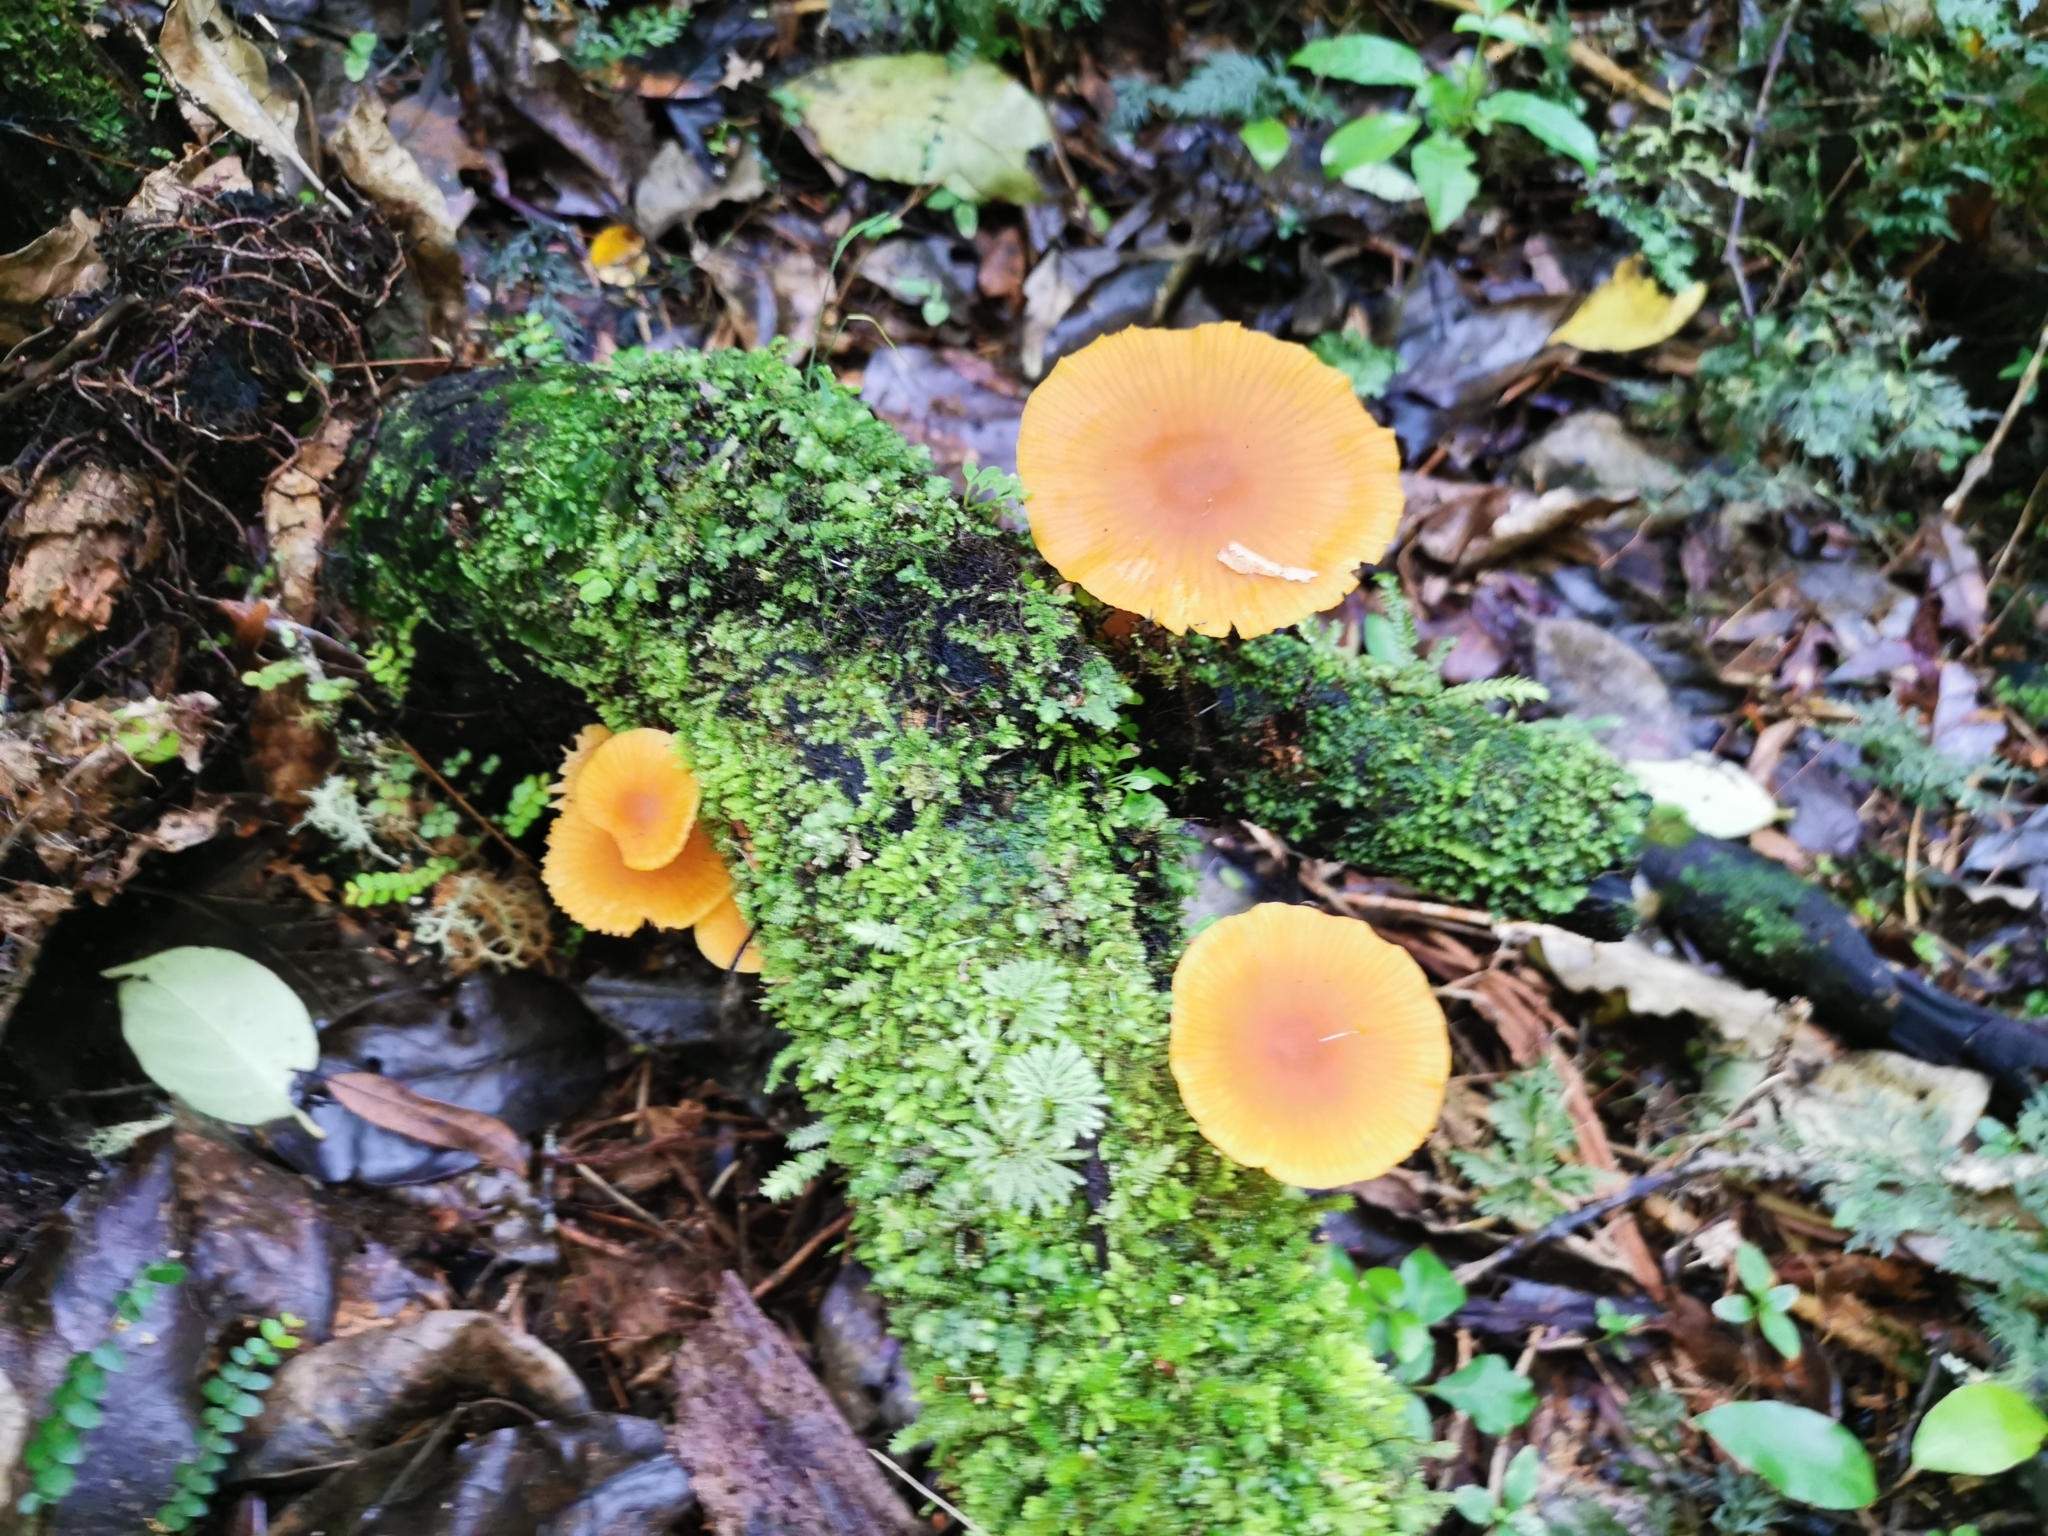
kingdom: Fungi
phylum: Basidiomycota
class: Agaricomycetes
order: Agaricales
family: Mycenaceae
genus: Heimiomyces
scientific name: Heimiomyces velutipes
